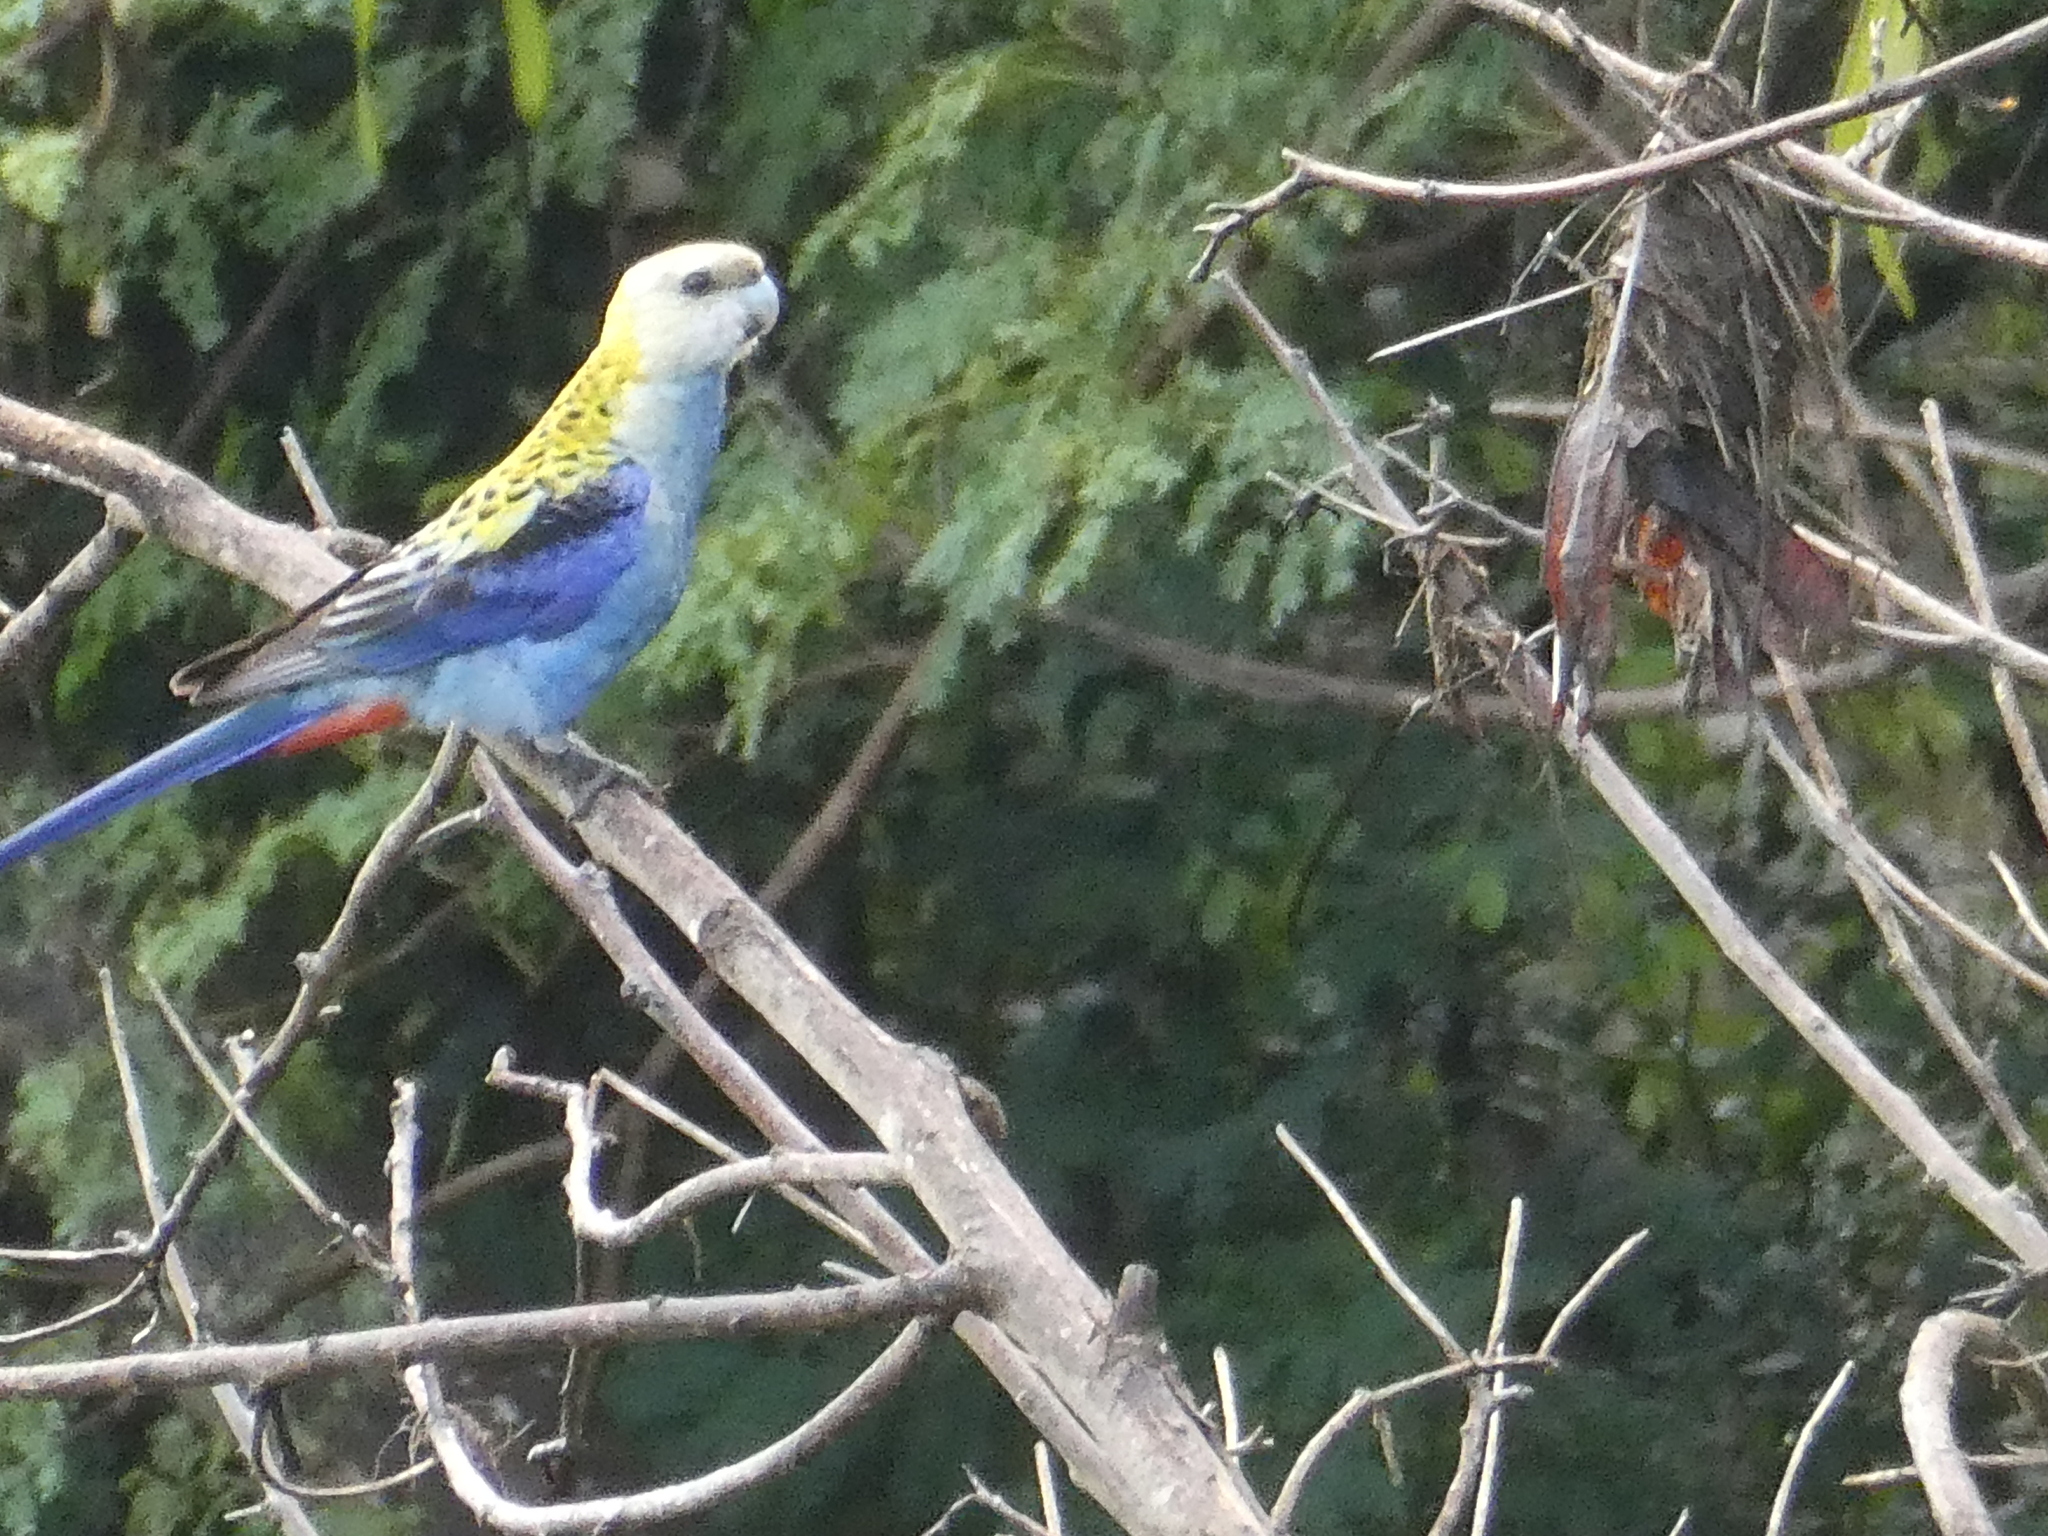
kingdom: Animalia
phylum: Chordata
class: Aves
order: Psittaciformes
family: Psittacidae
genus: Platycercus
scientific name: Platycercus adscitus
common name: Pale-headed rosella
